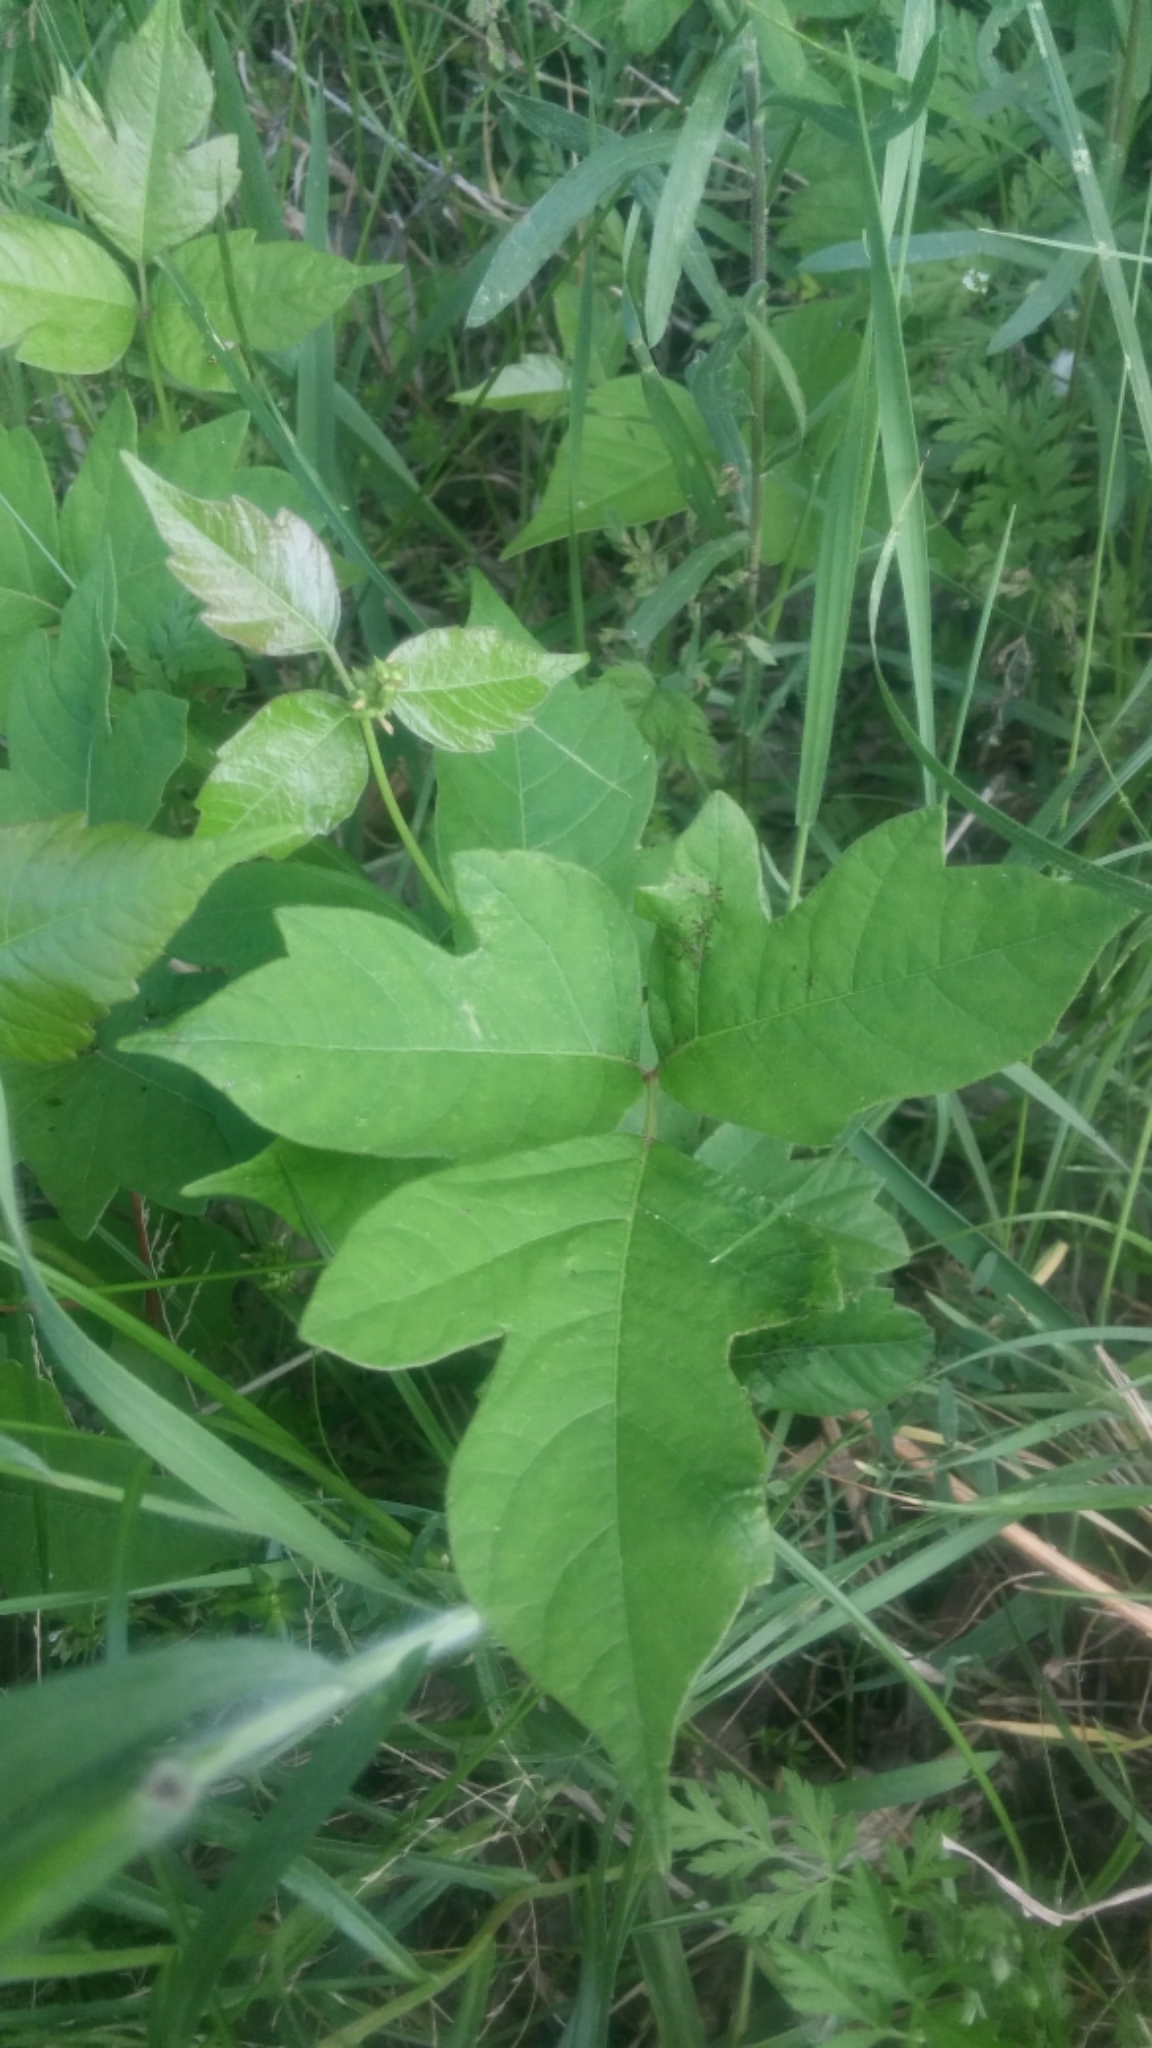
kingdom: Plantae
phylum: Tracheophyta
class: Magnoliopsida
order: Sapindales
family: Anacardiaceae
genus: Toxicodendron
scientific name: Toxicodendron radicans
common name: Poison ivy
